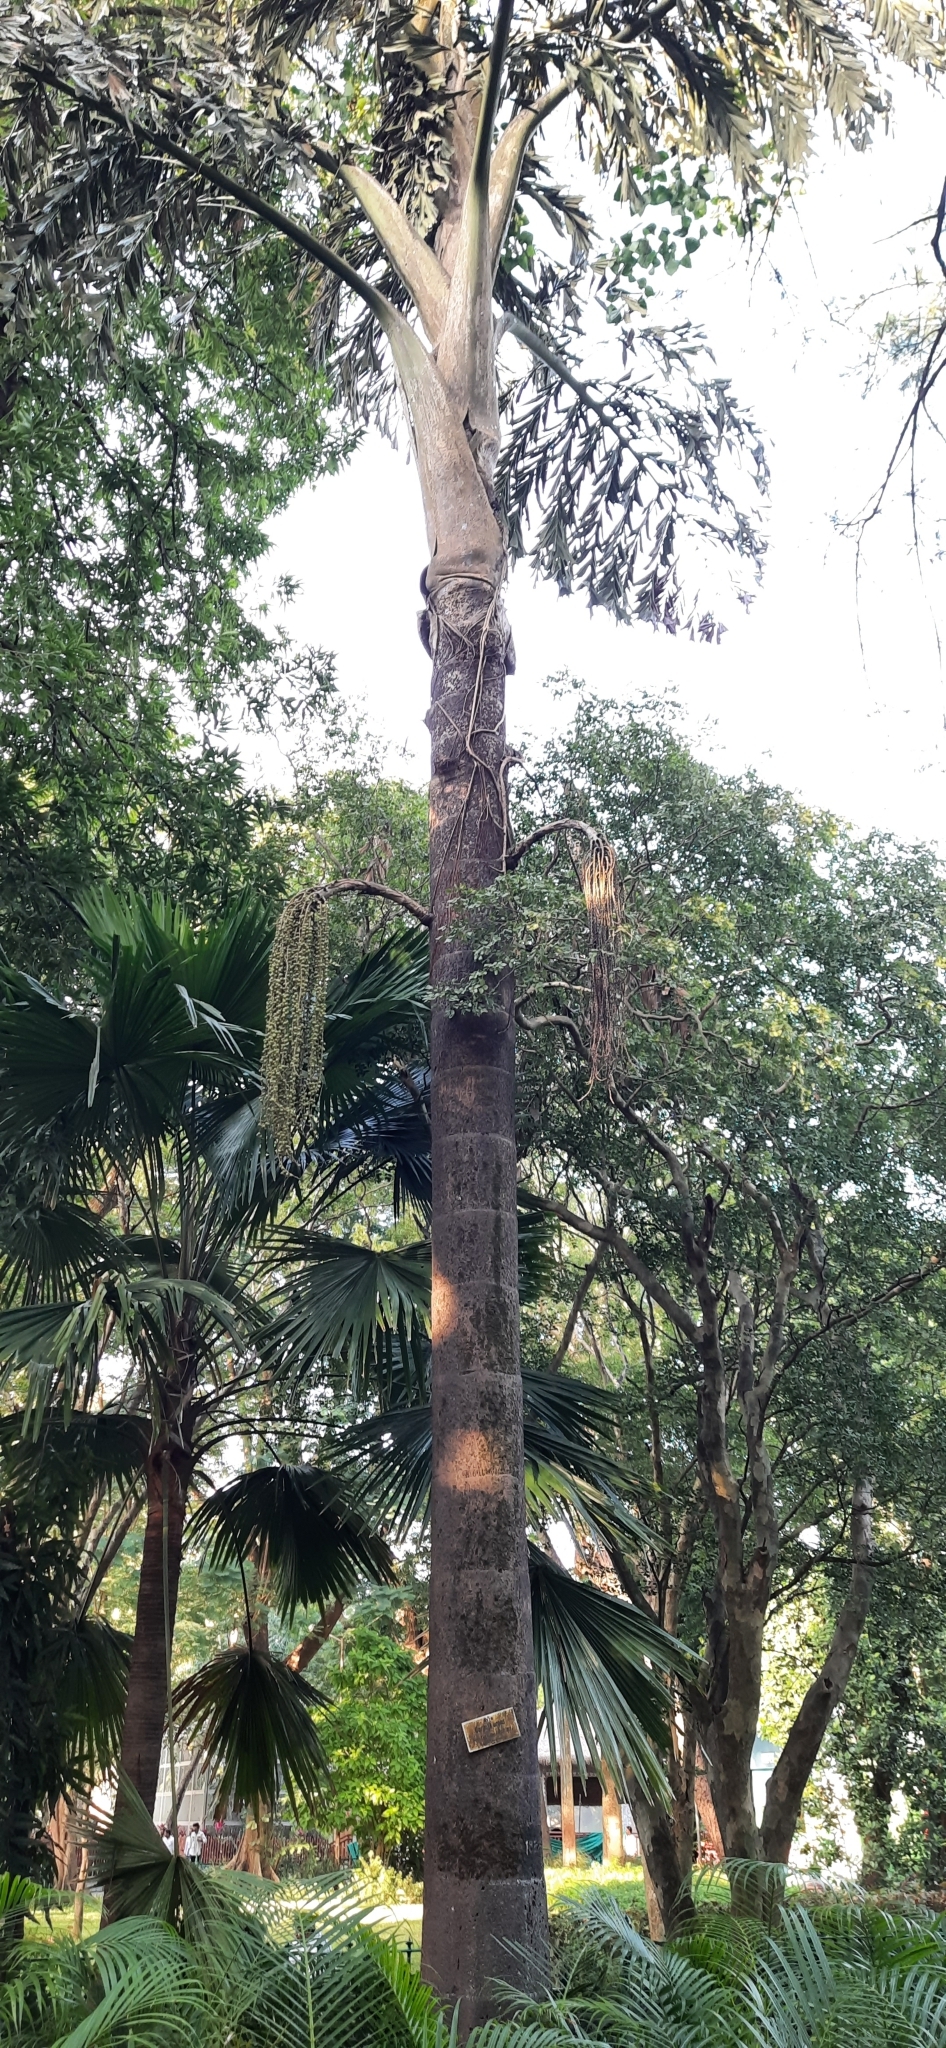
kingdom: Plantae
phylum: Tracheophyta
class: Liliopsida
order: Arecales
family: Arecaceae
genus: Caryota
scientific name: Caryota urens
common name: Jaggery palm
